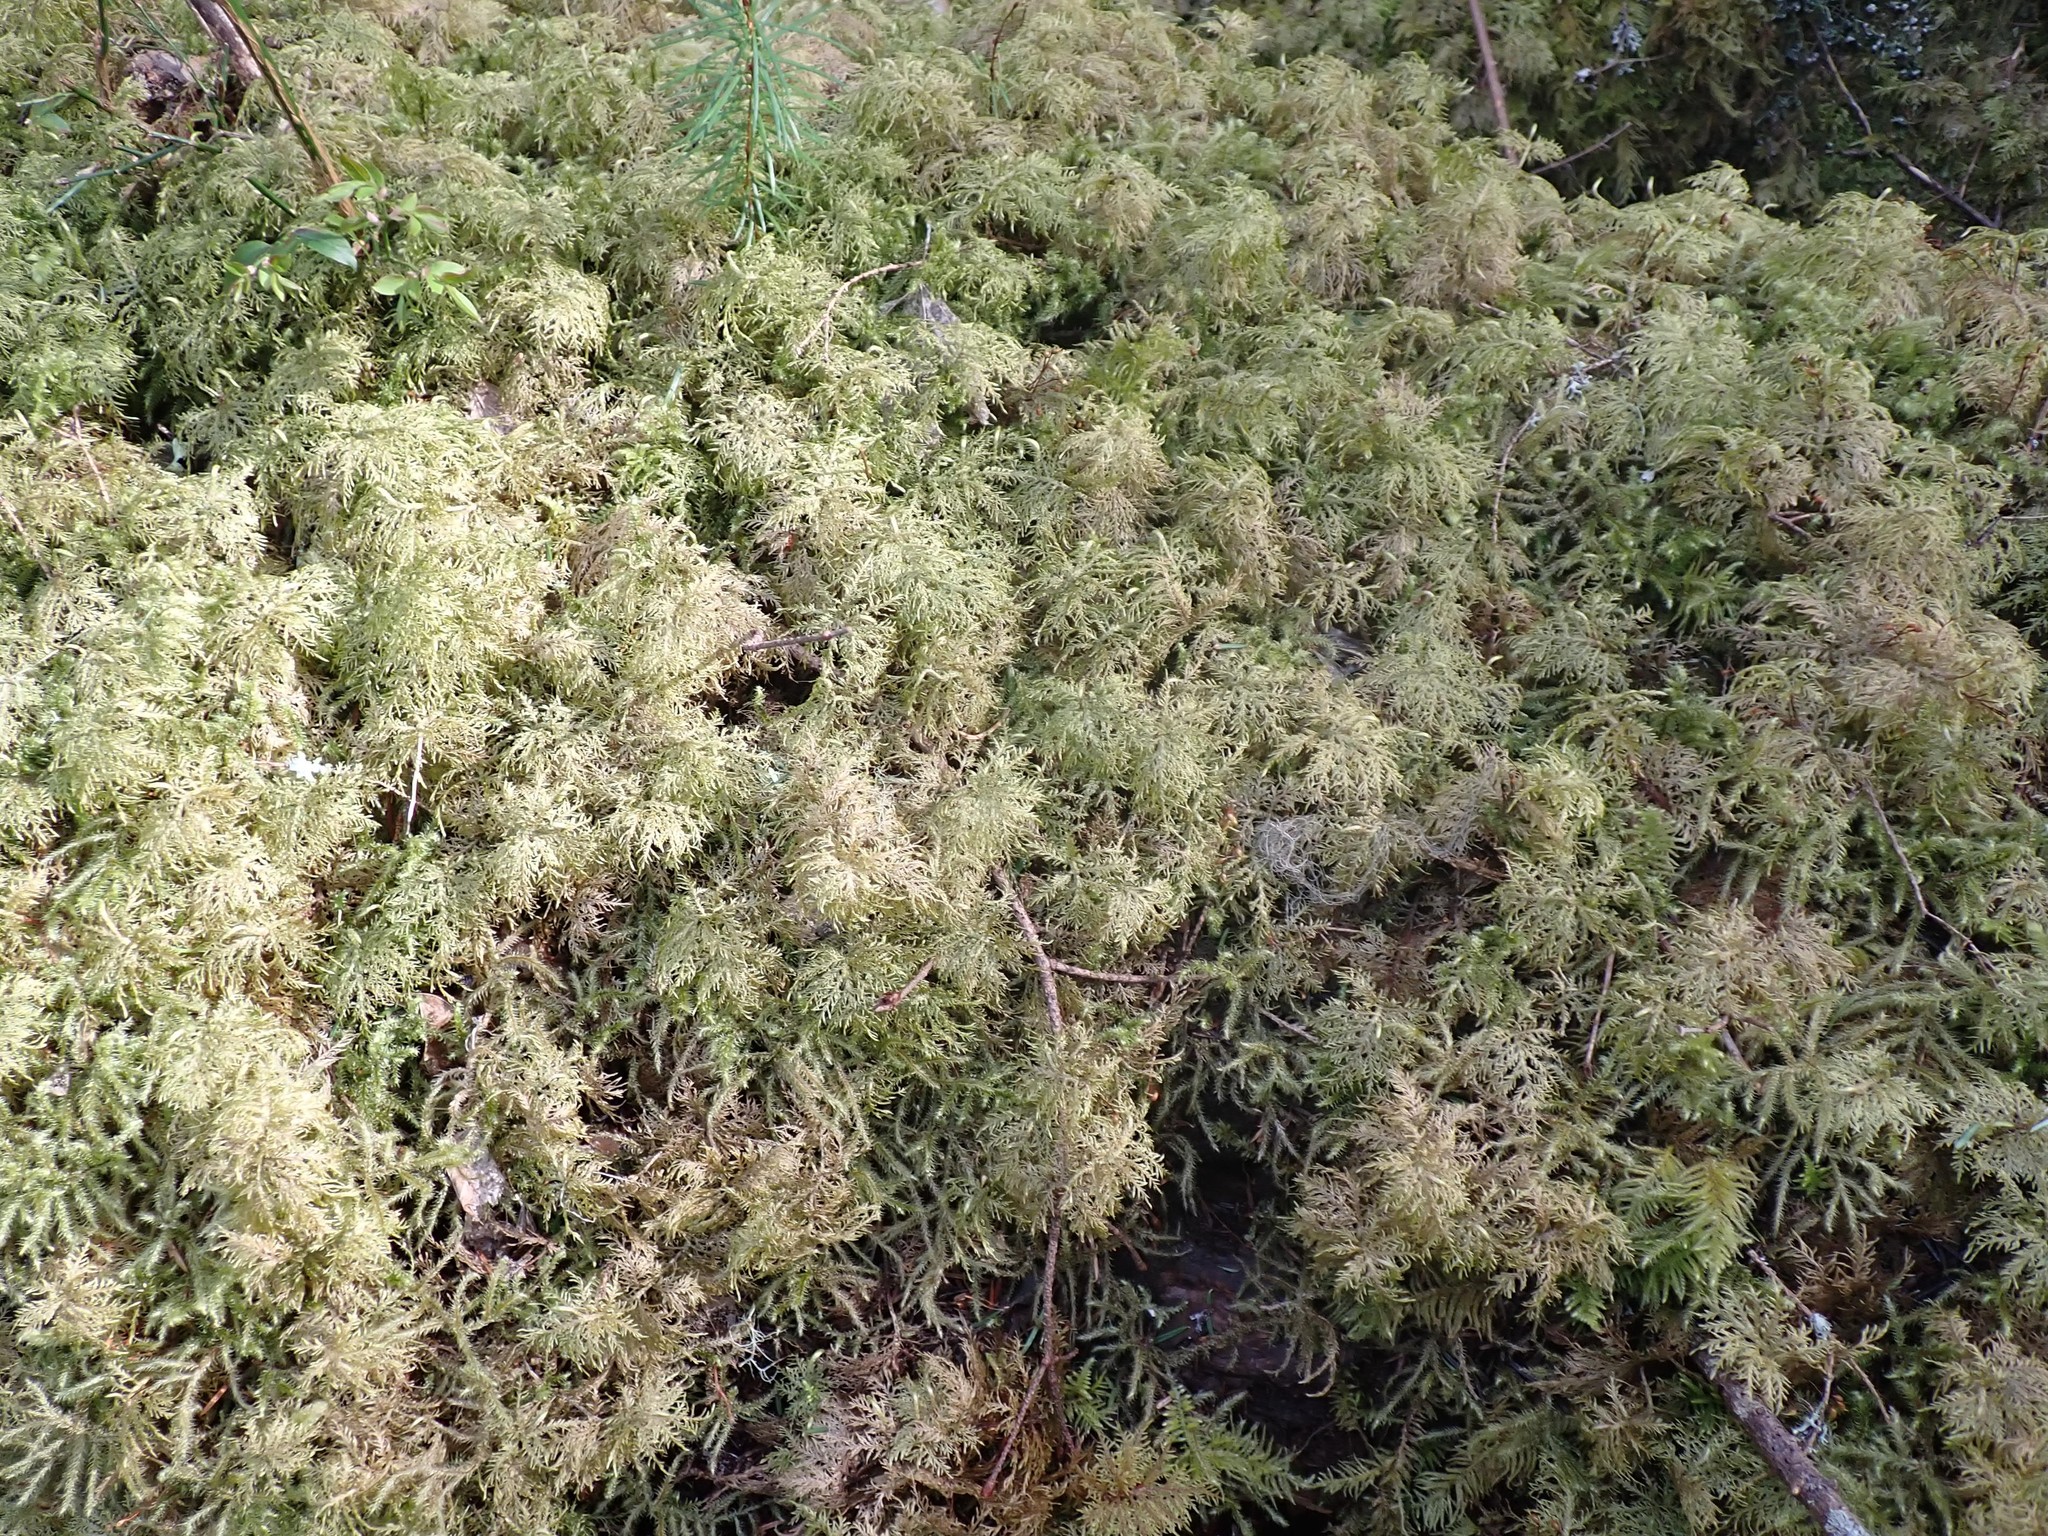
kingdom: Plantae
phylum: Bryophyta
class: Bryopsida
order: Hypnales
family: Hylocomiaceae
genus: Hylocomium
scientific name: Hylocomium splendens
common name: Stairstep moss
